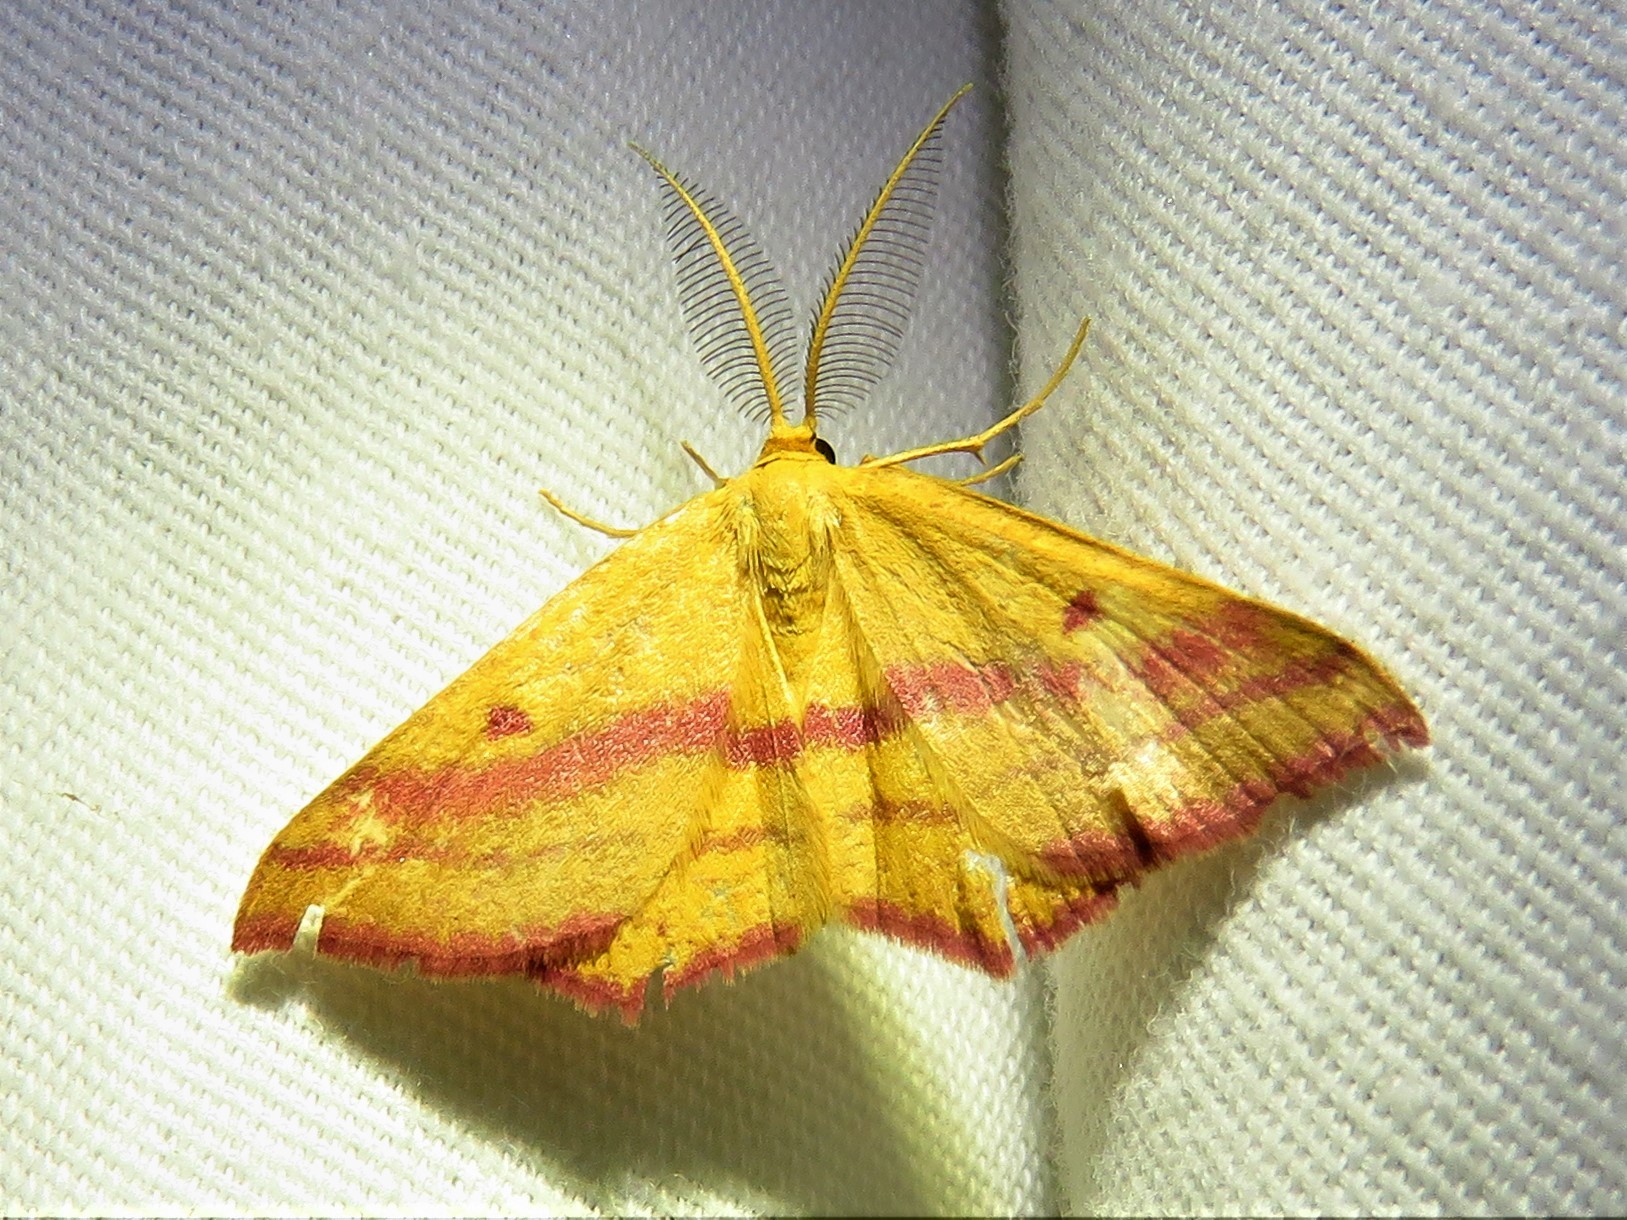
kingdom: Animalia
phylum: Arthropoda
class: Insecta
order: Lepidoptera
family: Geometridae
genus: Haematopis
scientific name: Haematopis grataria
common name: Chickweed geometer
